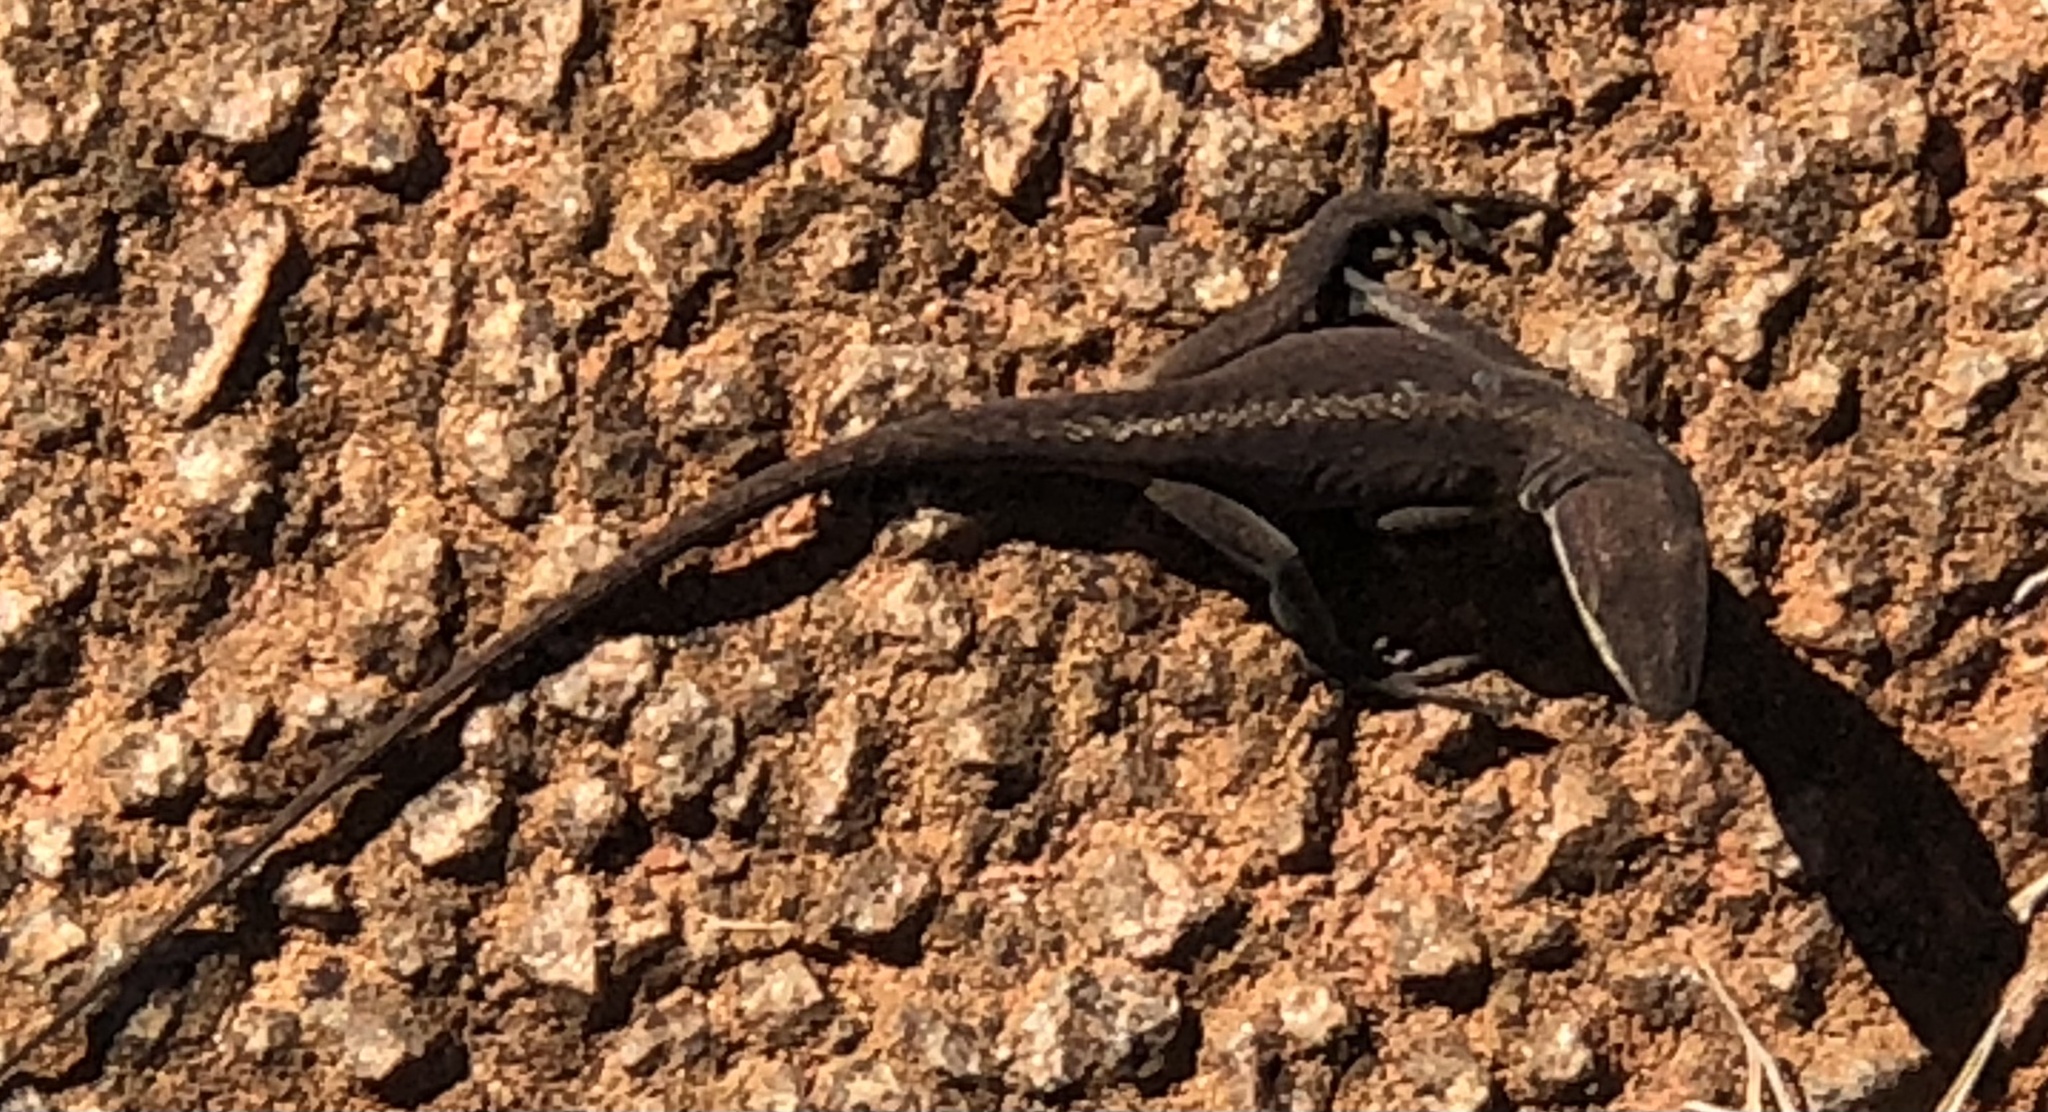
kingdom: Animalia
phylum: Chordata
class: Squamata
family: Dactyloidae
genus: Anolis
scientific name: Anolis carolinensis
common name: Green anole
